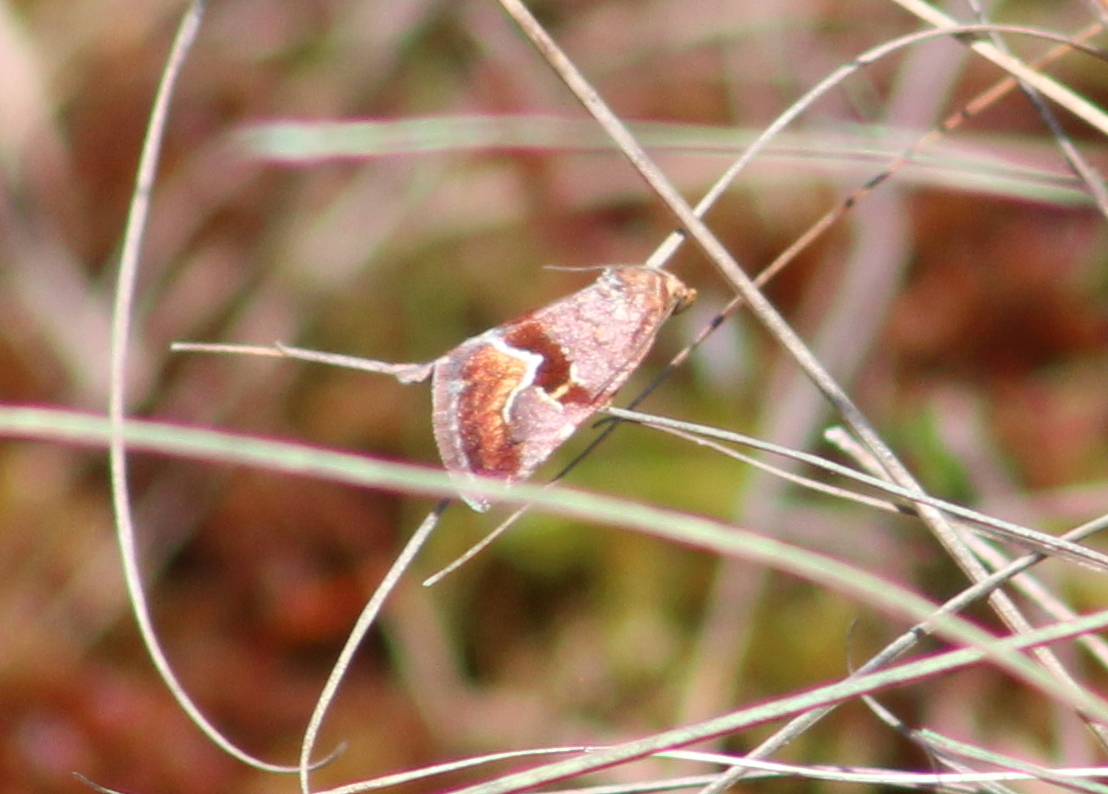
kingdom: Animalia
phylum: Arthropoda
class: Insecta
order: Lepidoptera
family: Noctuidae
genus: Deltote
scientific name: Deltote bellicula
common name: Bog glyph
